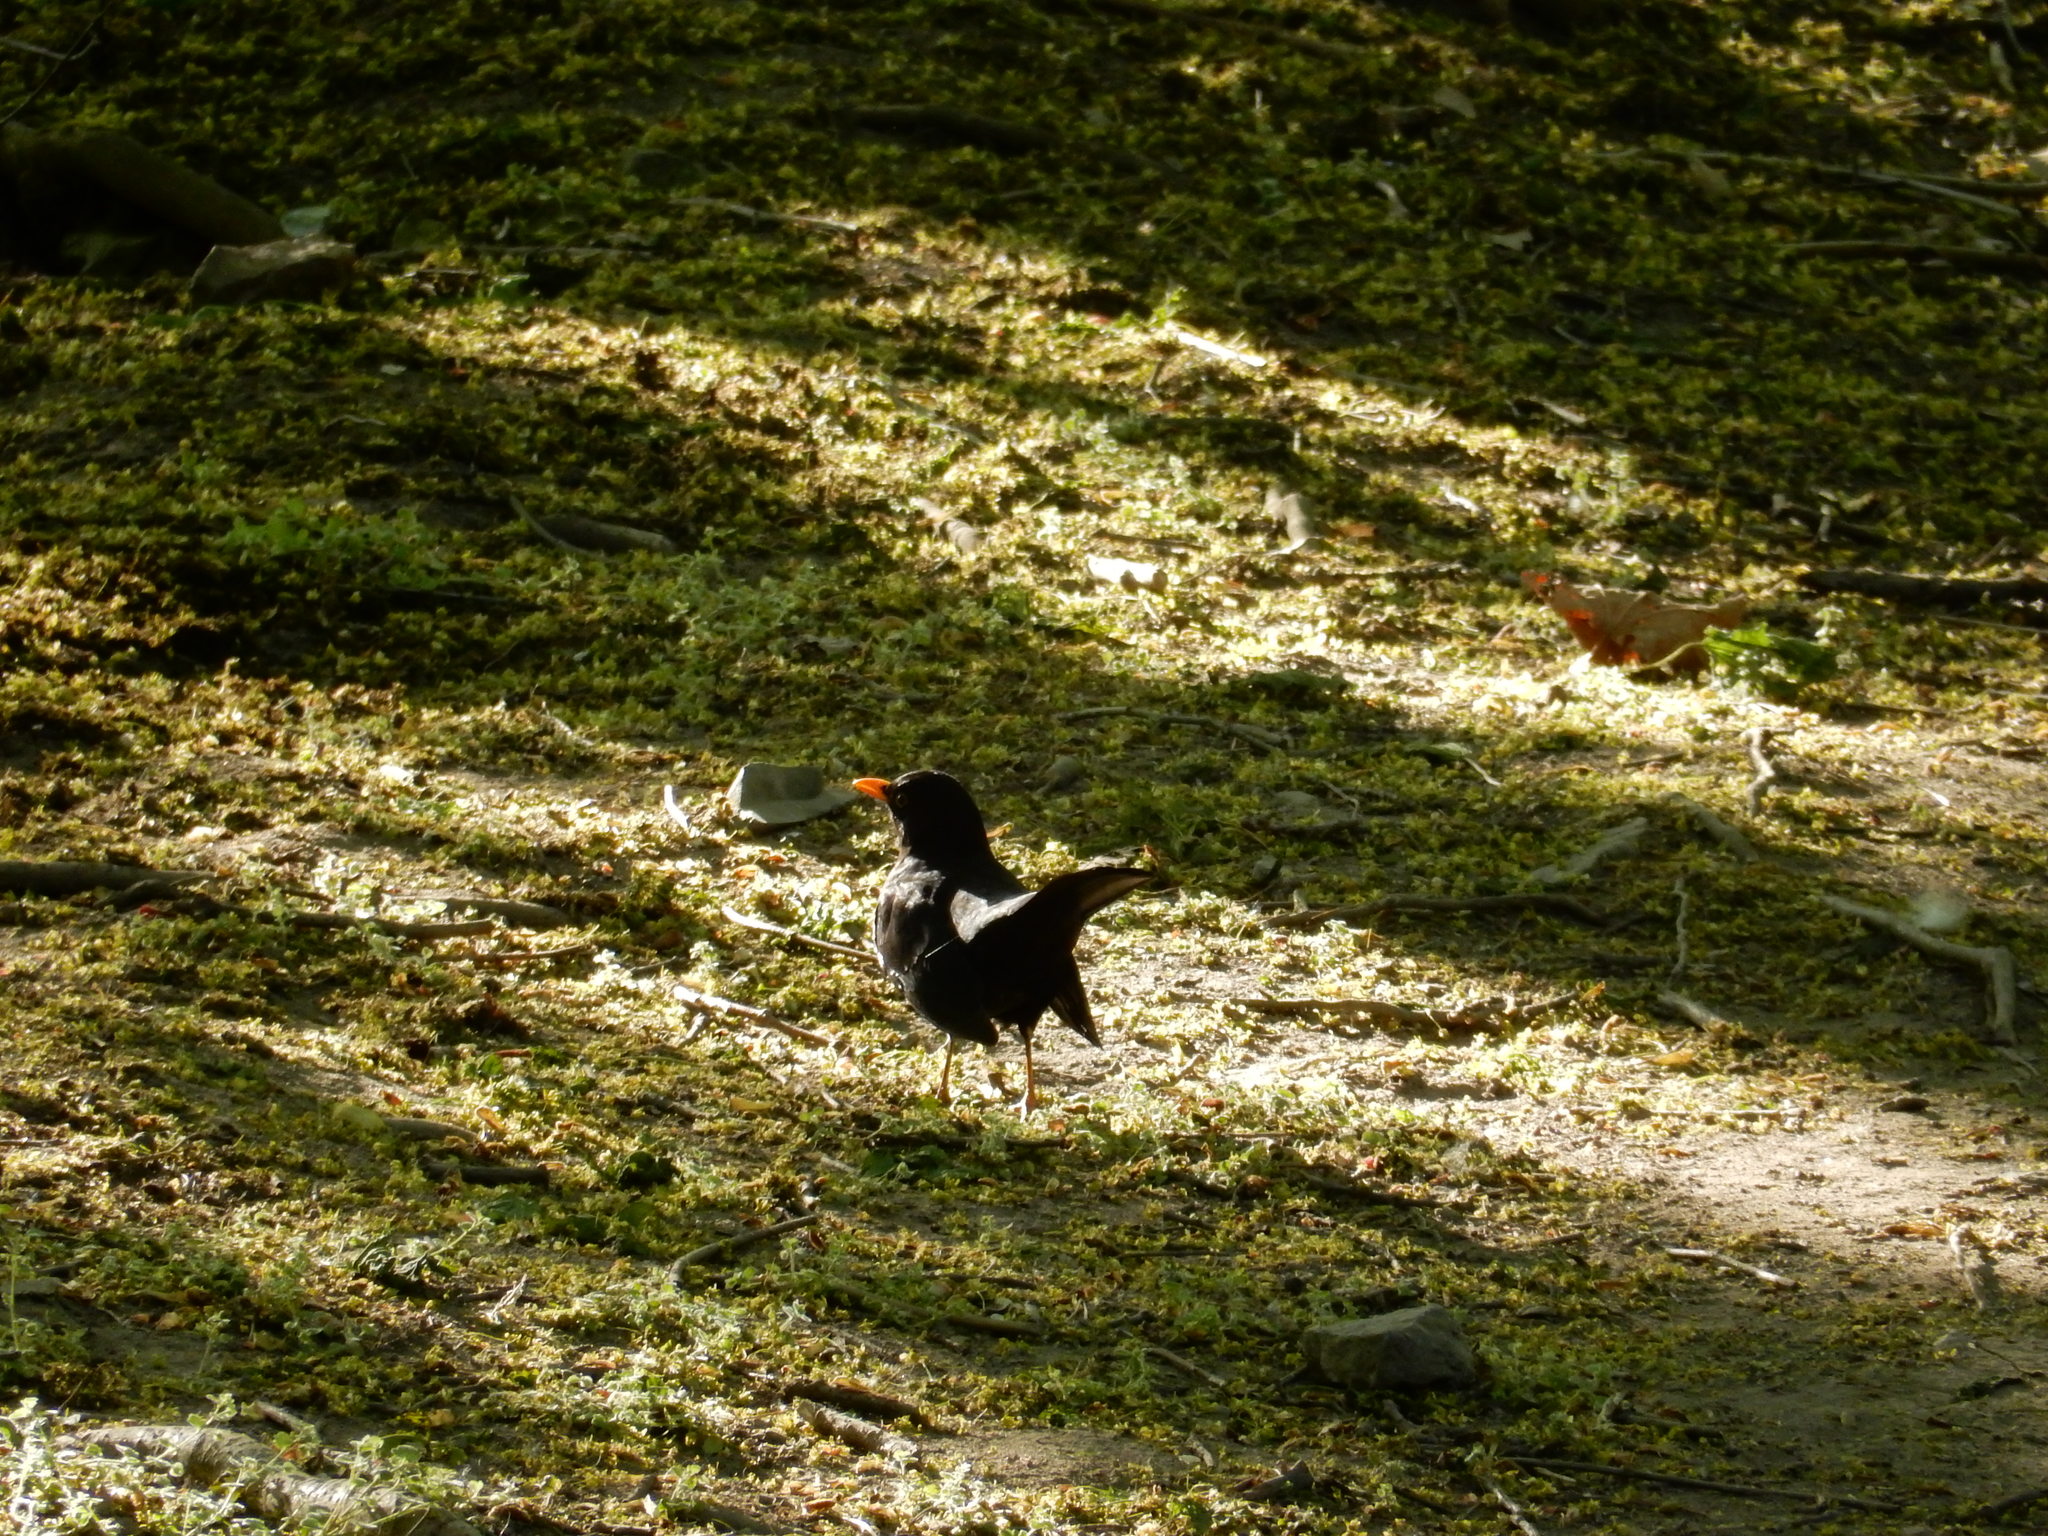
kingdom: Animalia
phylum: Chordata
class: Aves
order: Passeriformes
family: Turdidae
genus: Turdus
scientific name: Turdus merula
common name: Common blackbird
